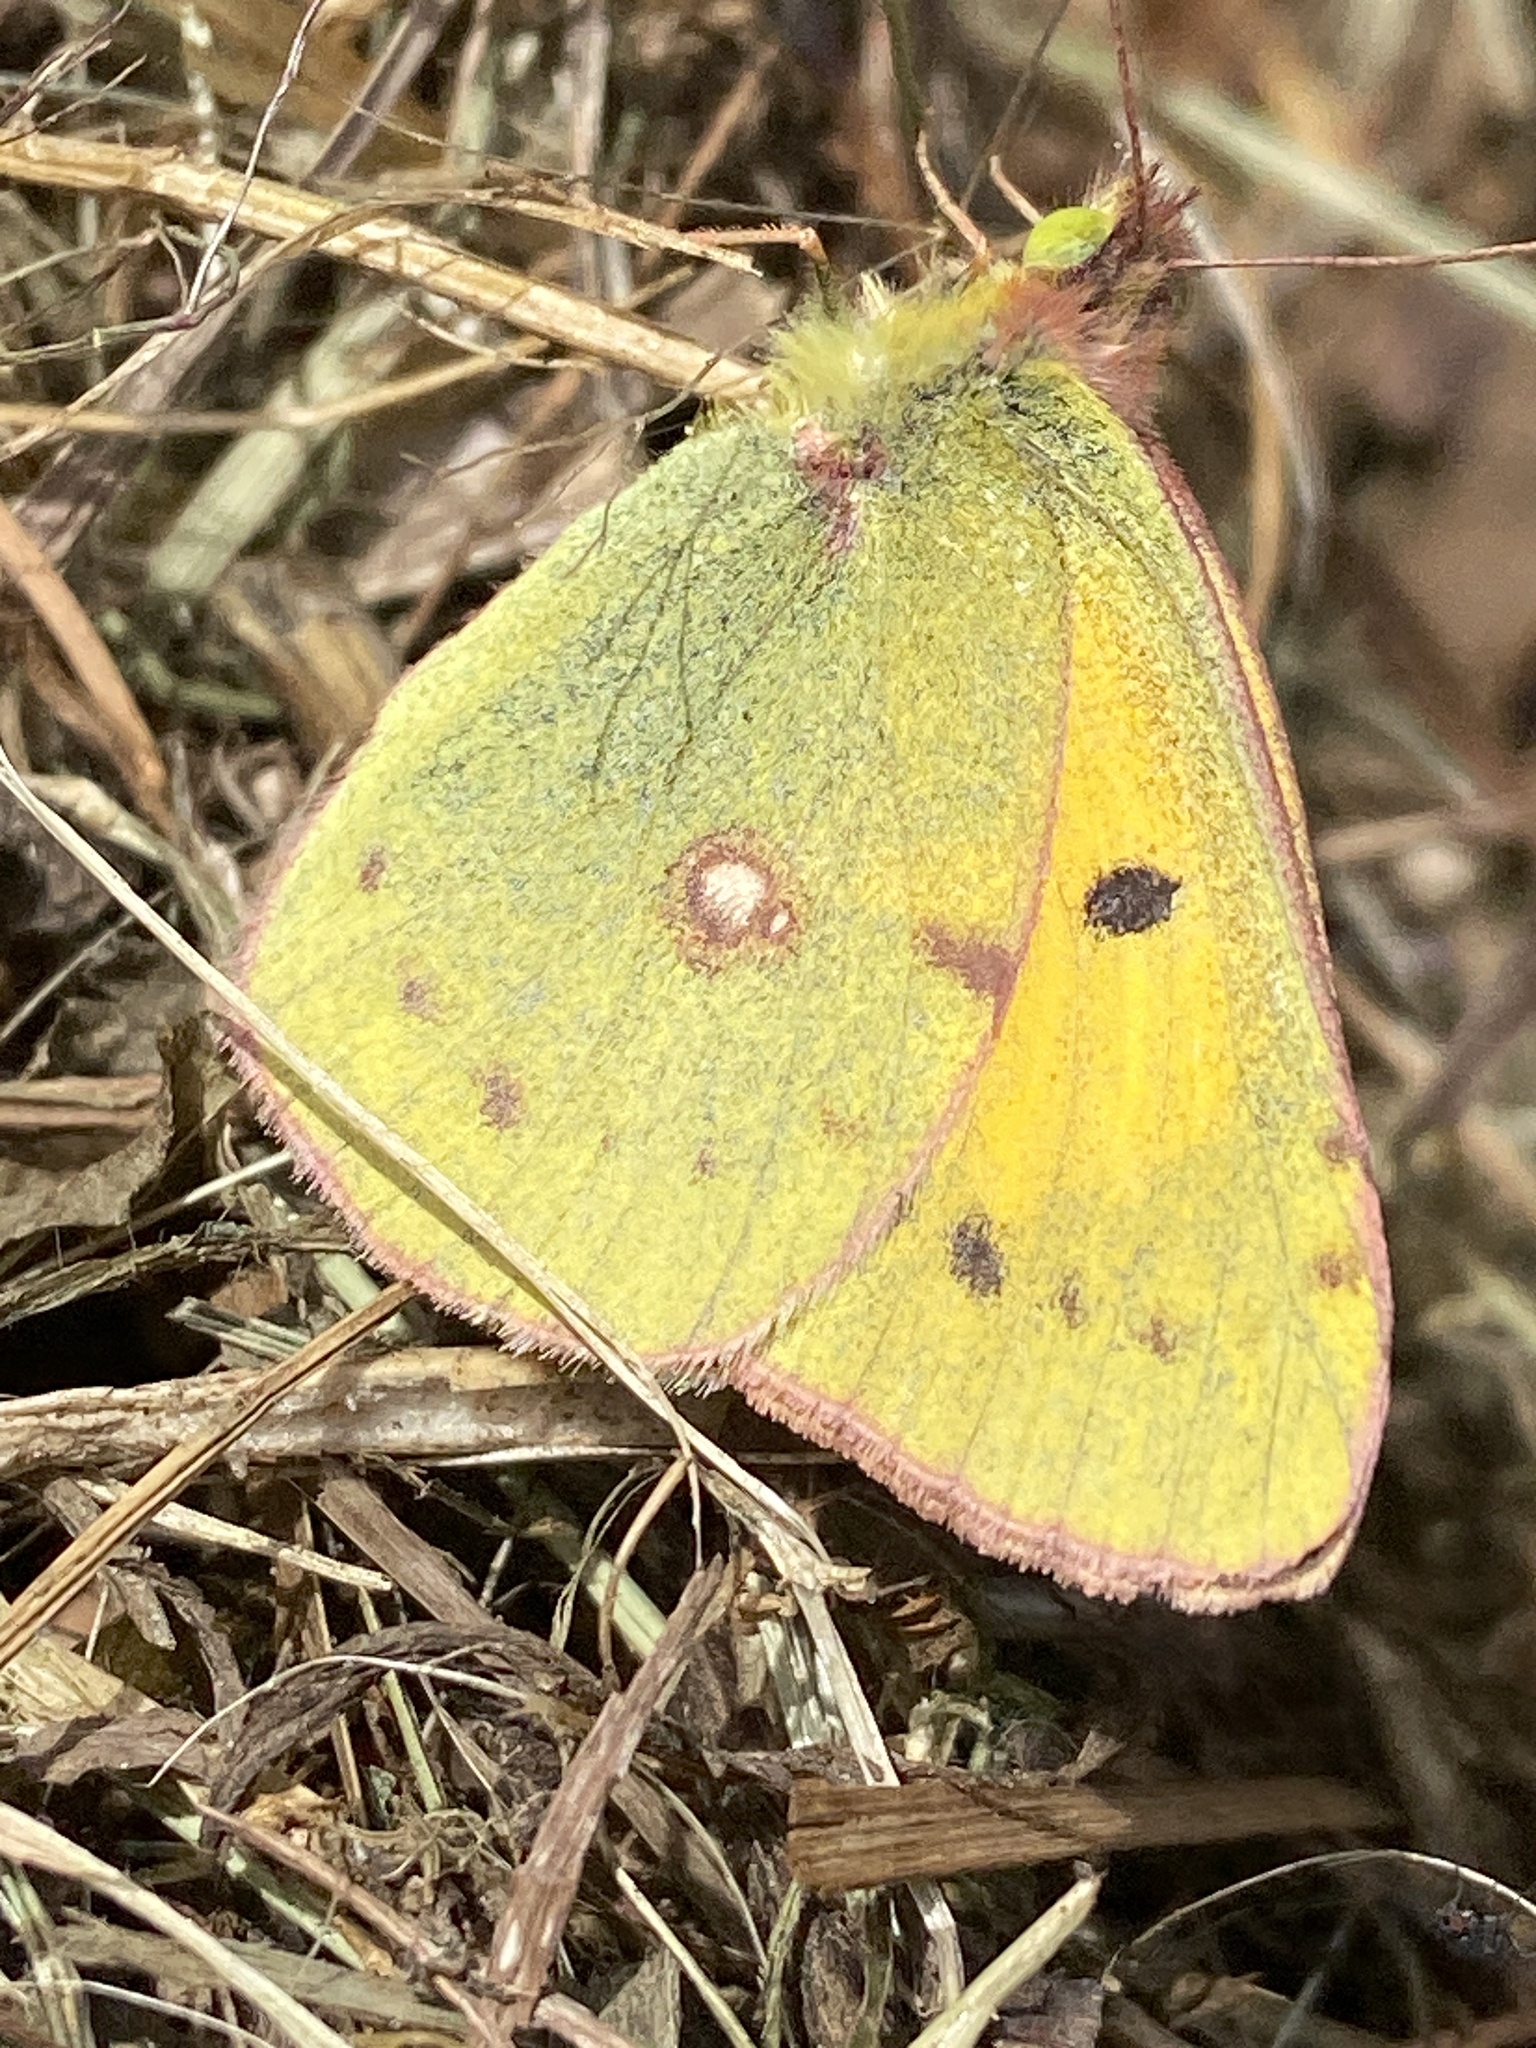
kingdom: Animalia
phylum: Arthropoda
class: Insecta
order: Lepidoptera
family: Pieridae
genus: Colias
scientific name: Colias croceus
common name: Clouded yellow
